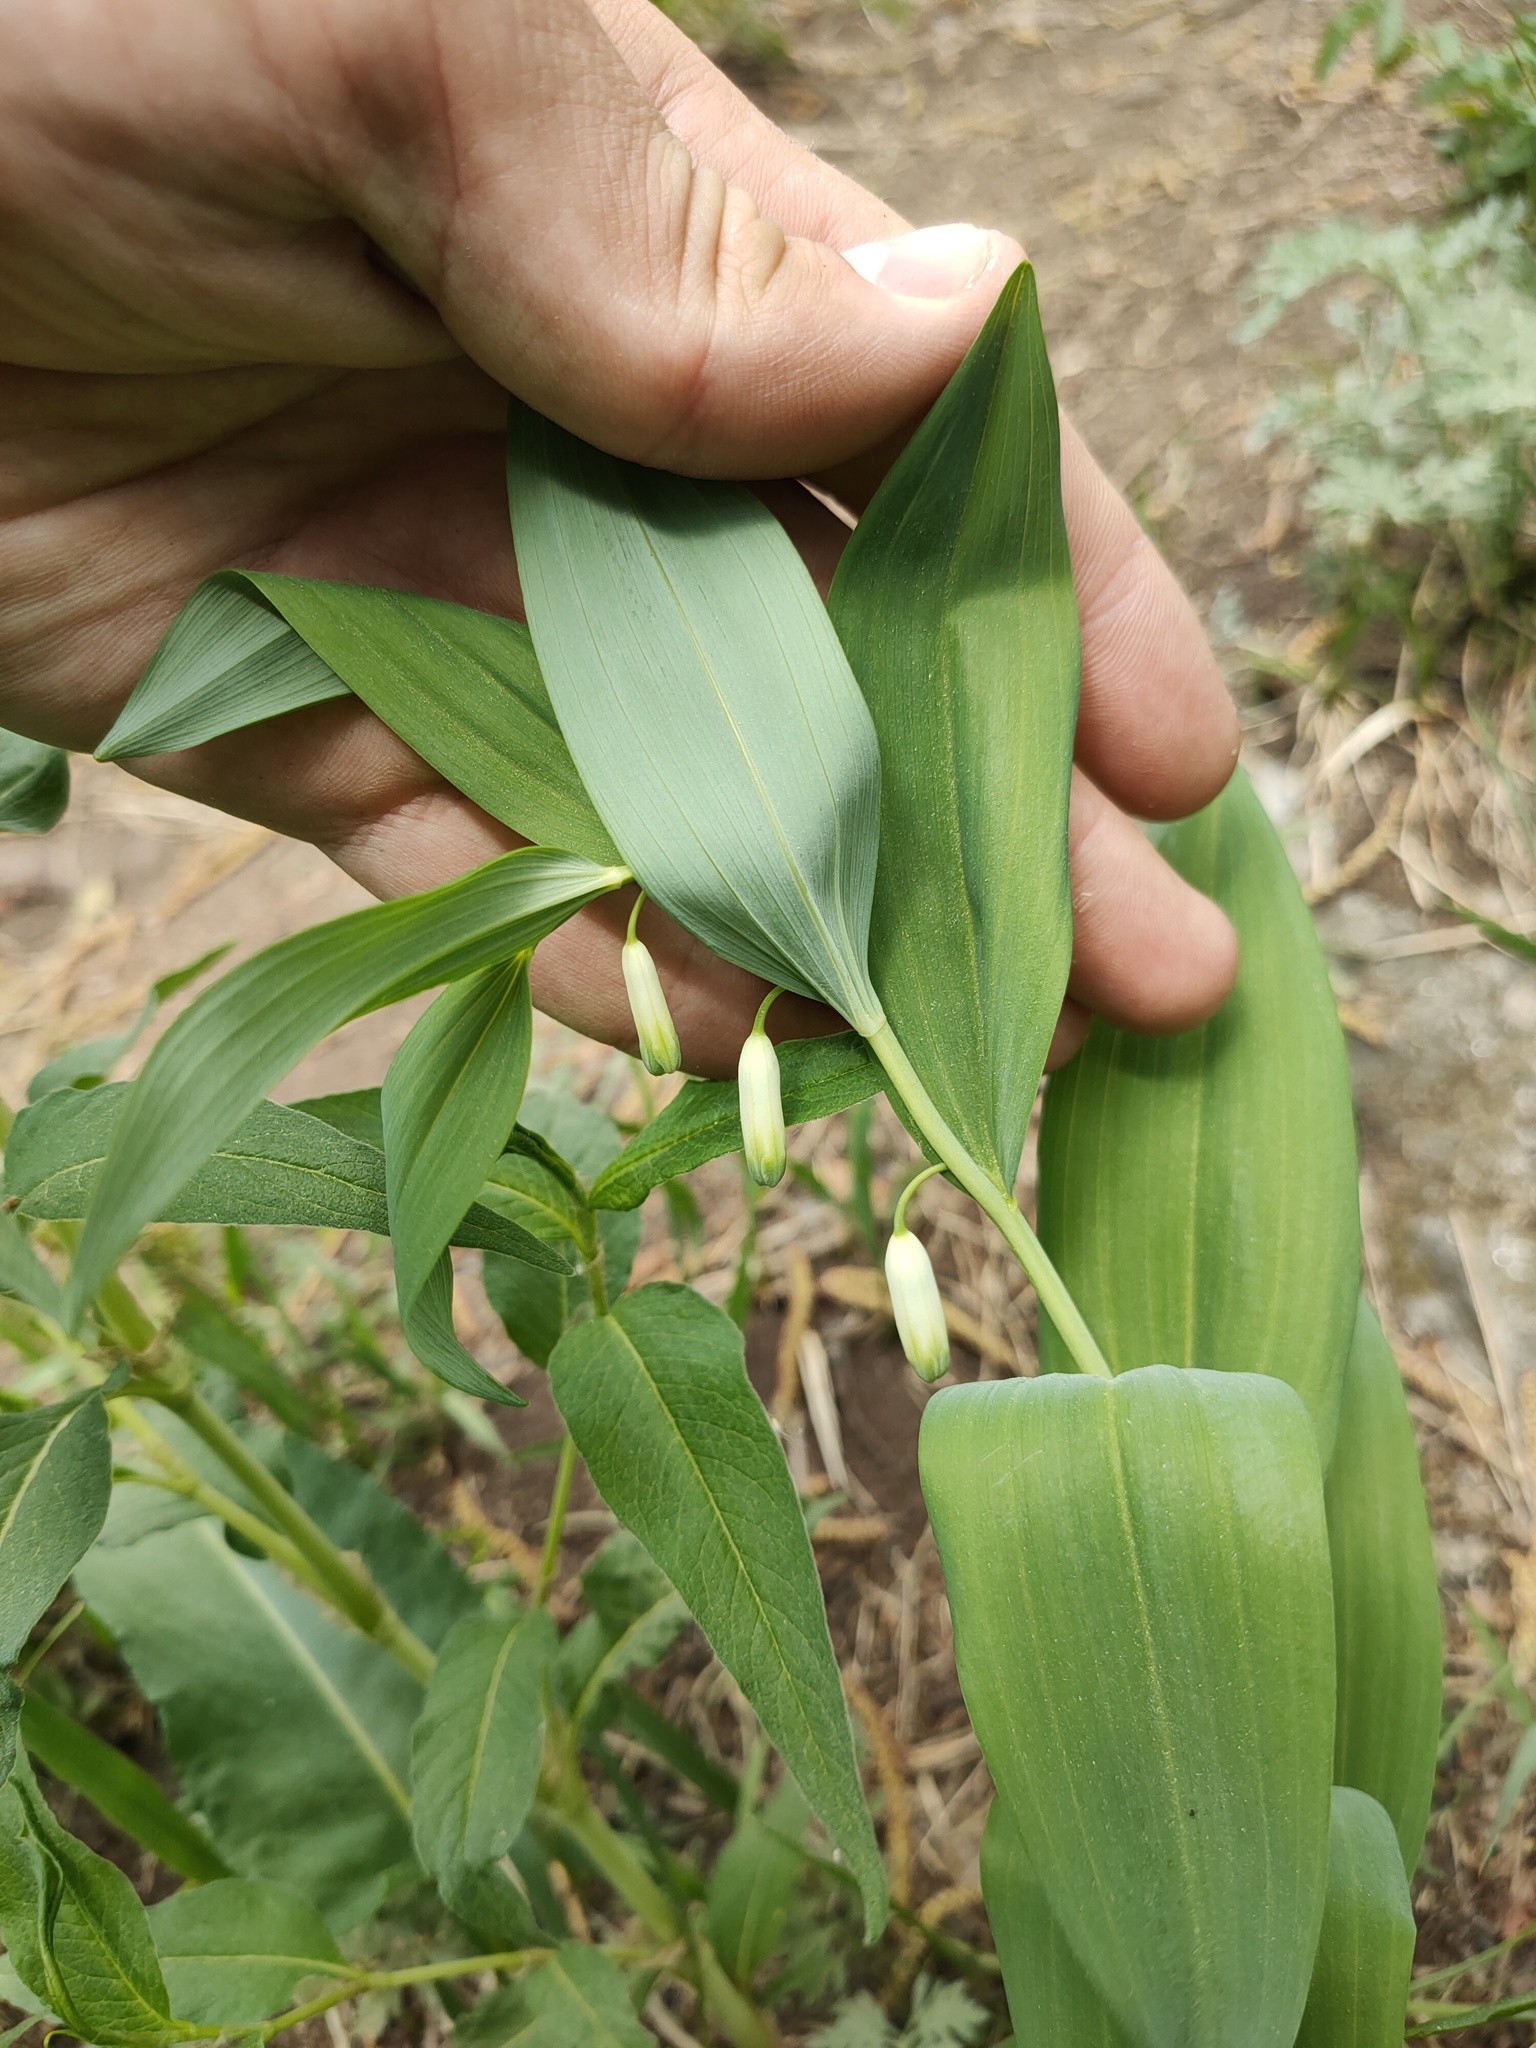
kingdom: Plantae
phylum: Tracheophyta
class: Liliopsida
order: Asparagales
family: Asparagaceae
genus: Polygonatum
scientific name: Polygonatum odoratum
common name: Angular solomon's-seal
